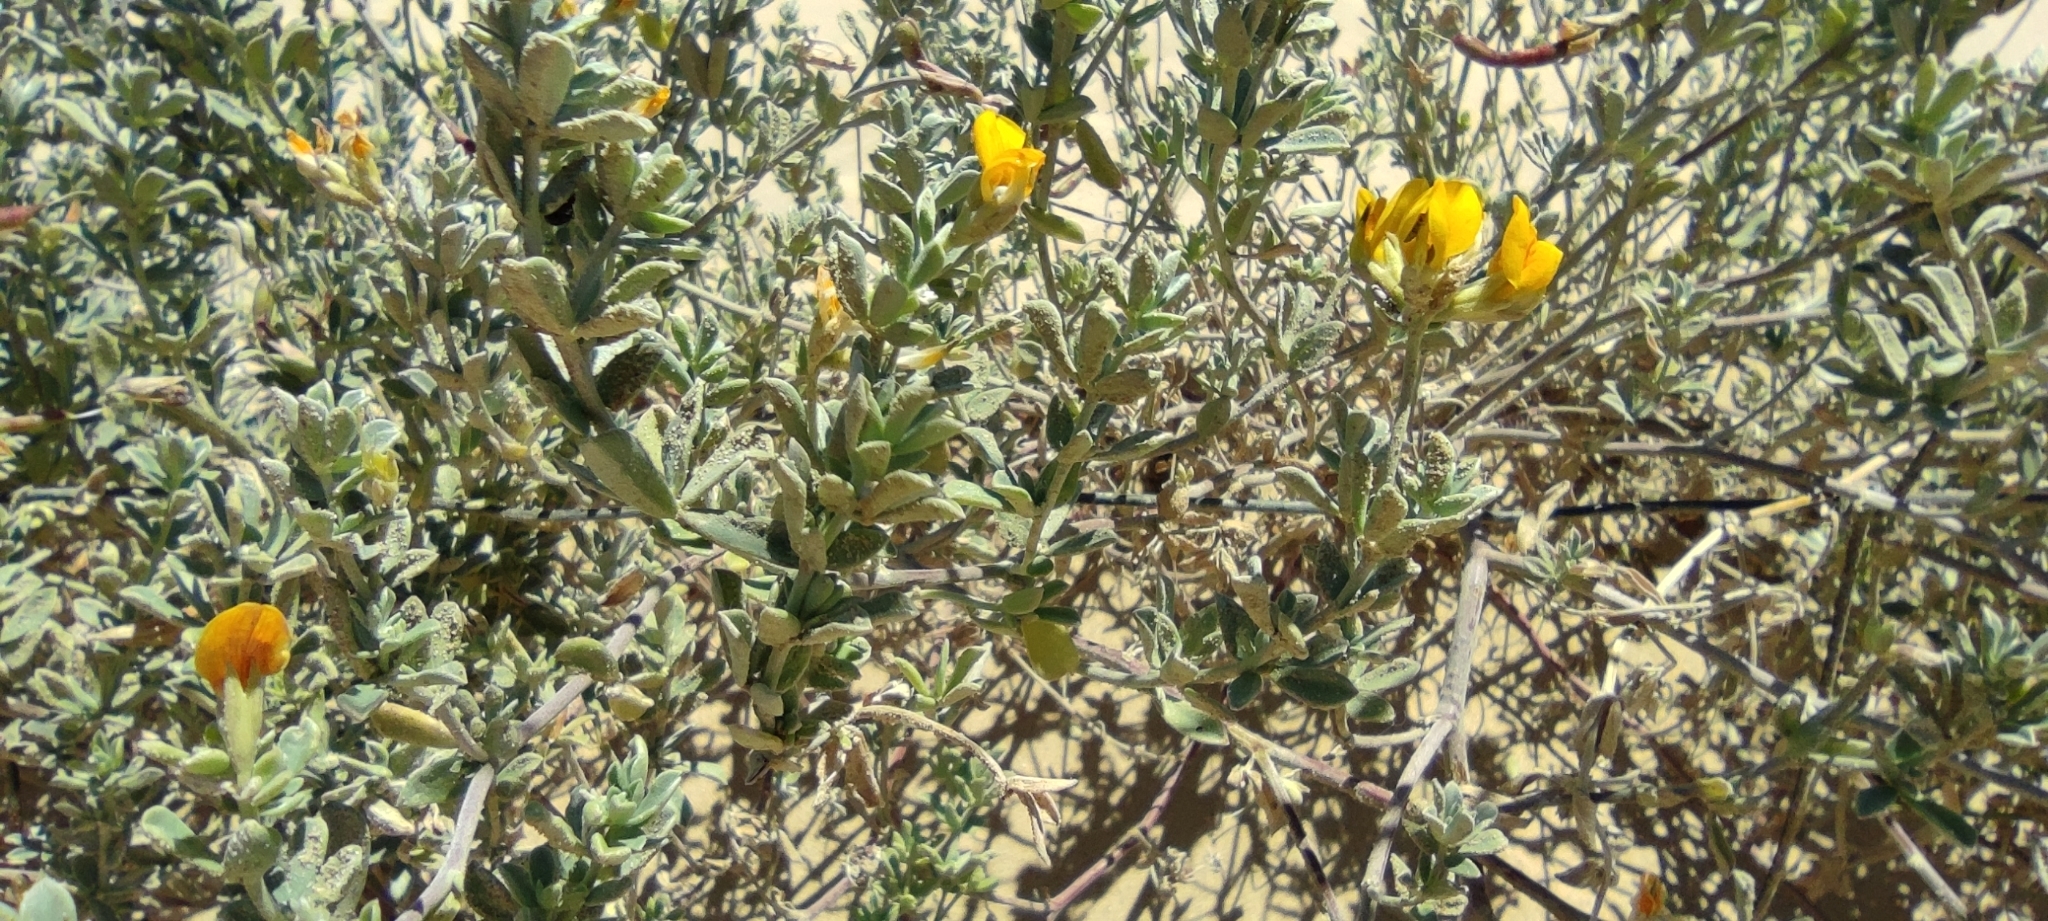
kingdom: Plantae
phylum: Tracheophyta
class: Magnoliopsida
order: Fabales
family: Fabaceae
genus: Lotus
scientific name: Lotus creticus
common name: Cretan bird's-foot trefoil
